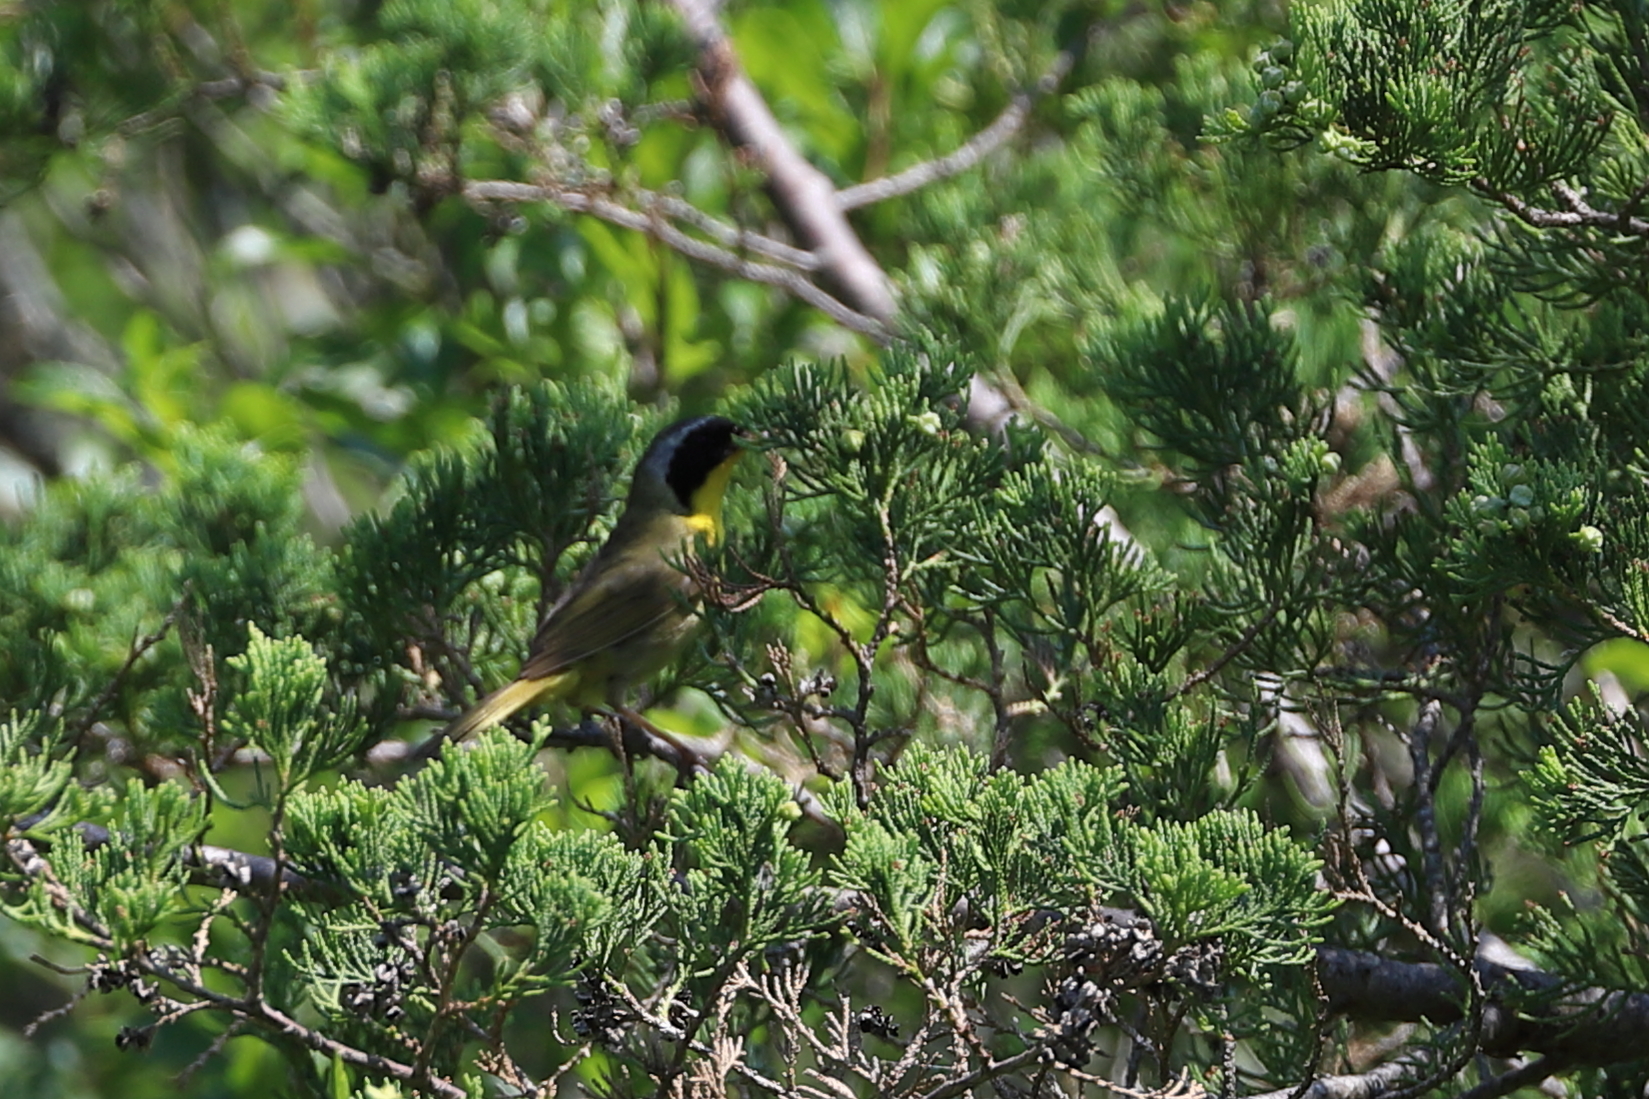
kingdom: Animalia
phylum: Chordata
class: Aves
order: Passeriformes
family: Parulidae
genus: Geothlypis
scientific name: Geothlypis trichas
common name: Common yellowthroat
